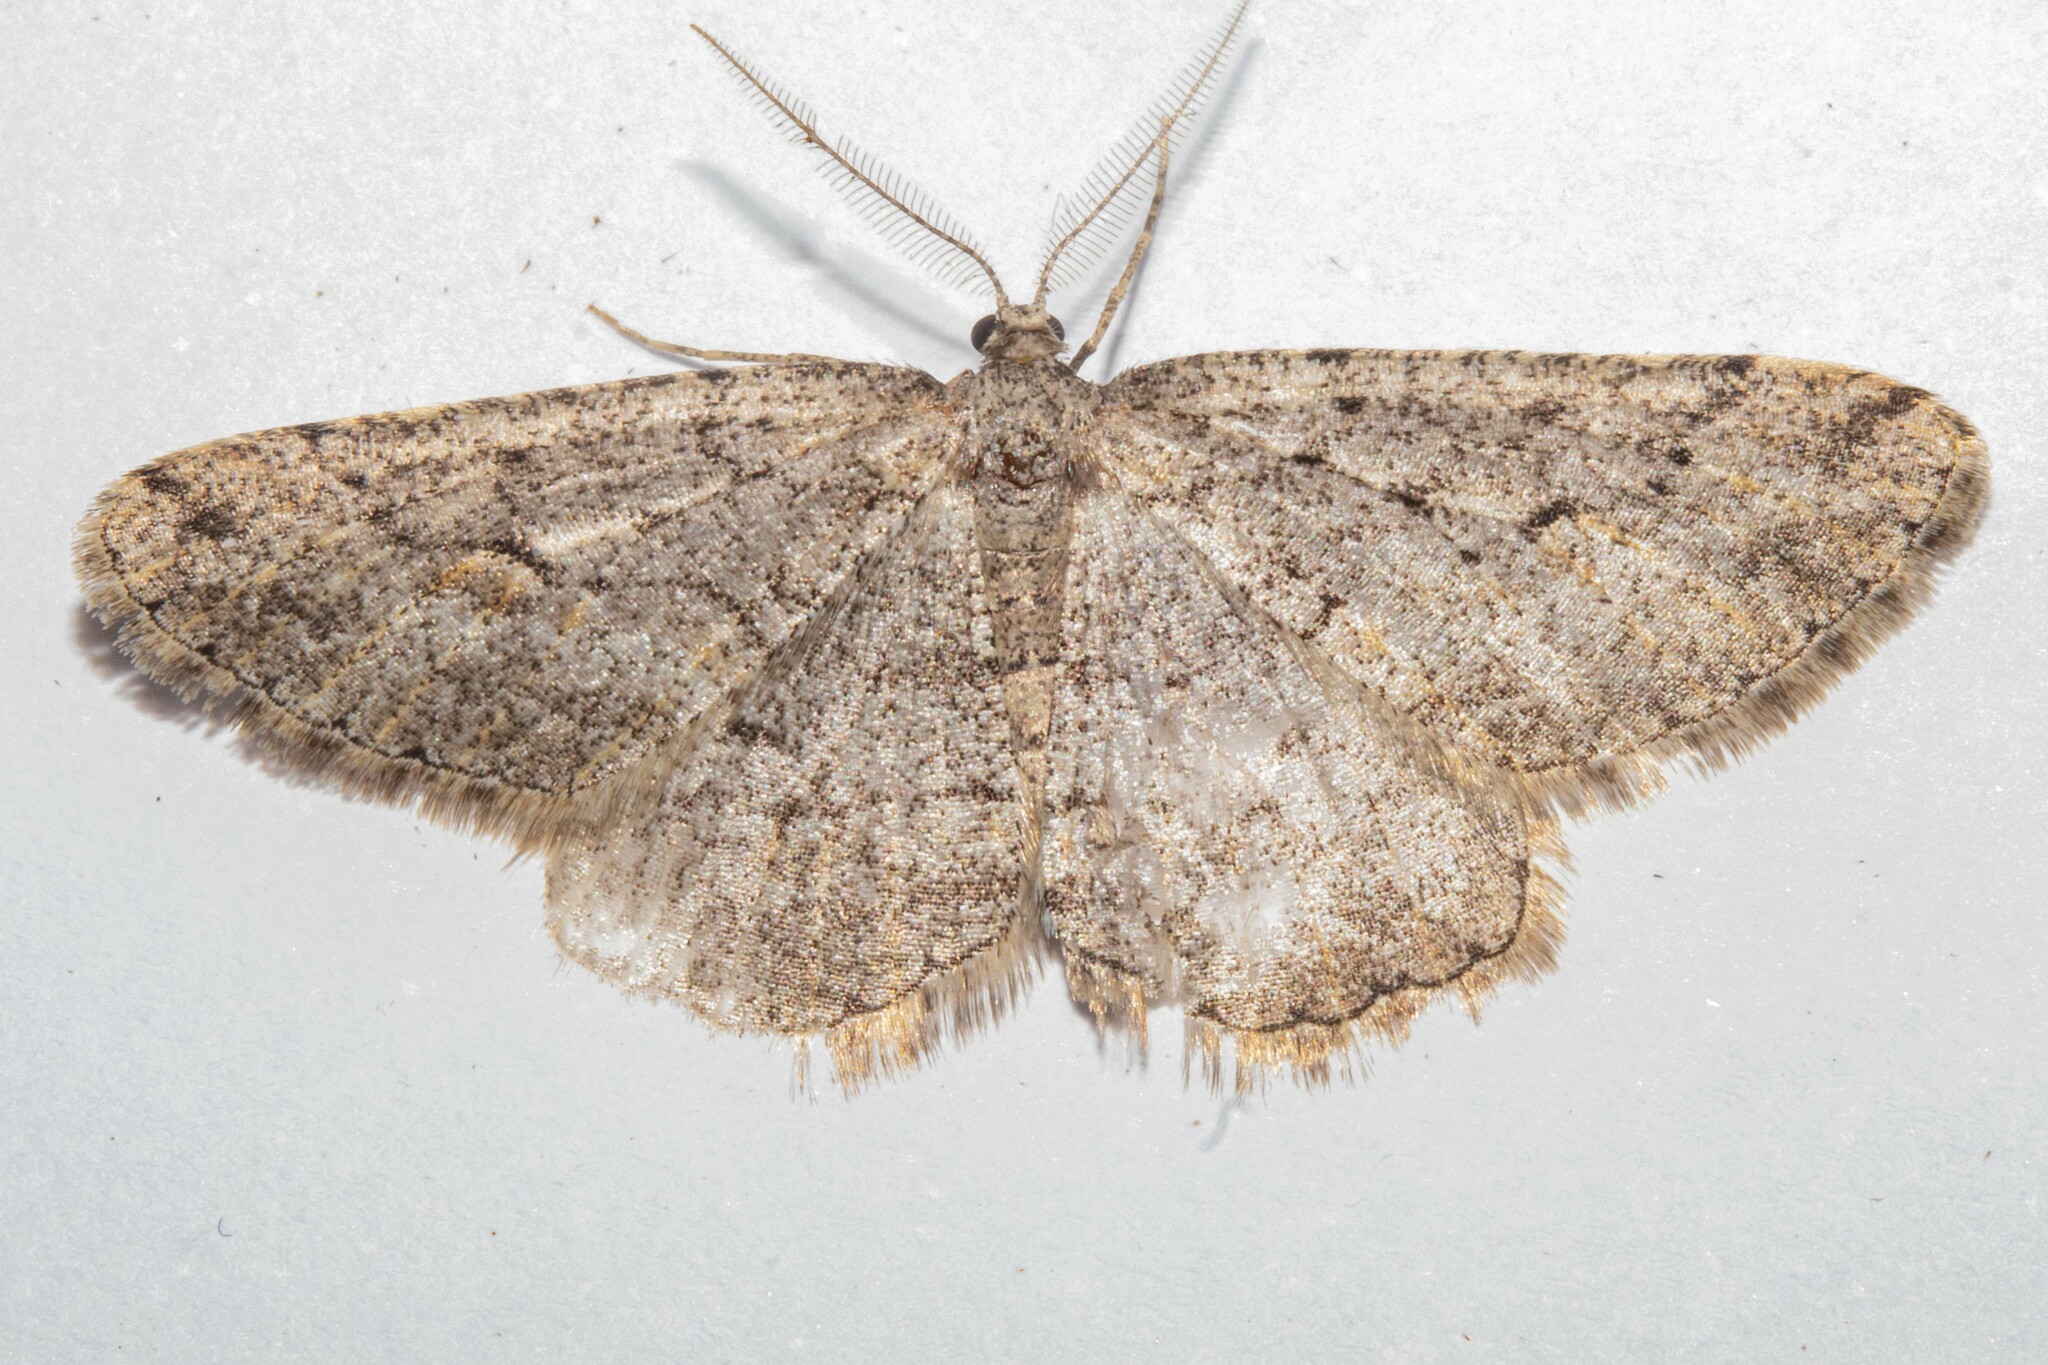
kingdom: Animalia
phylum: Arthropoda
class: Insecta
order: Lepidoptera
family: Geometridae
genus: Zermizinga
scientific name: Zermizinga indocilisaria
